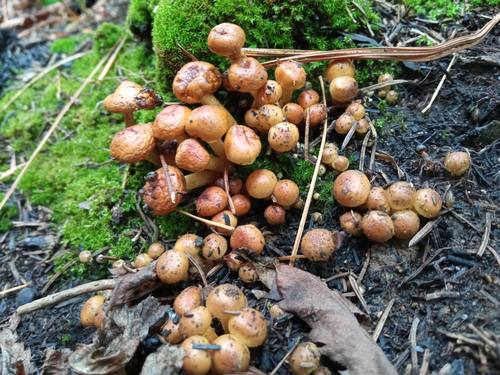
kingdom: Fungi
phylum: Basidiomycota
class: Agaricomycetes
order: Agaricales
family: Strophariaceae
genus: Hypholoma
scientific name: Hypholoma
